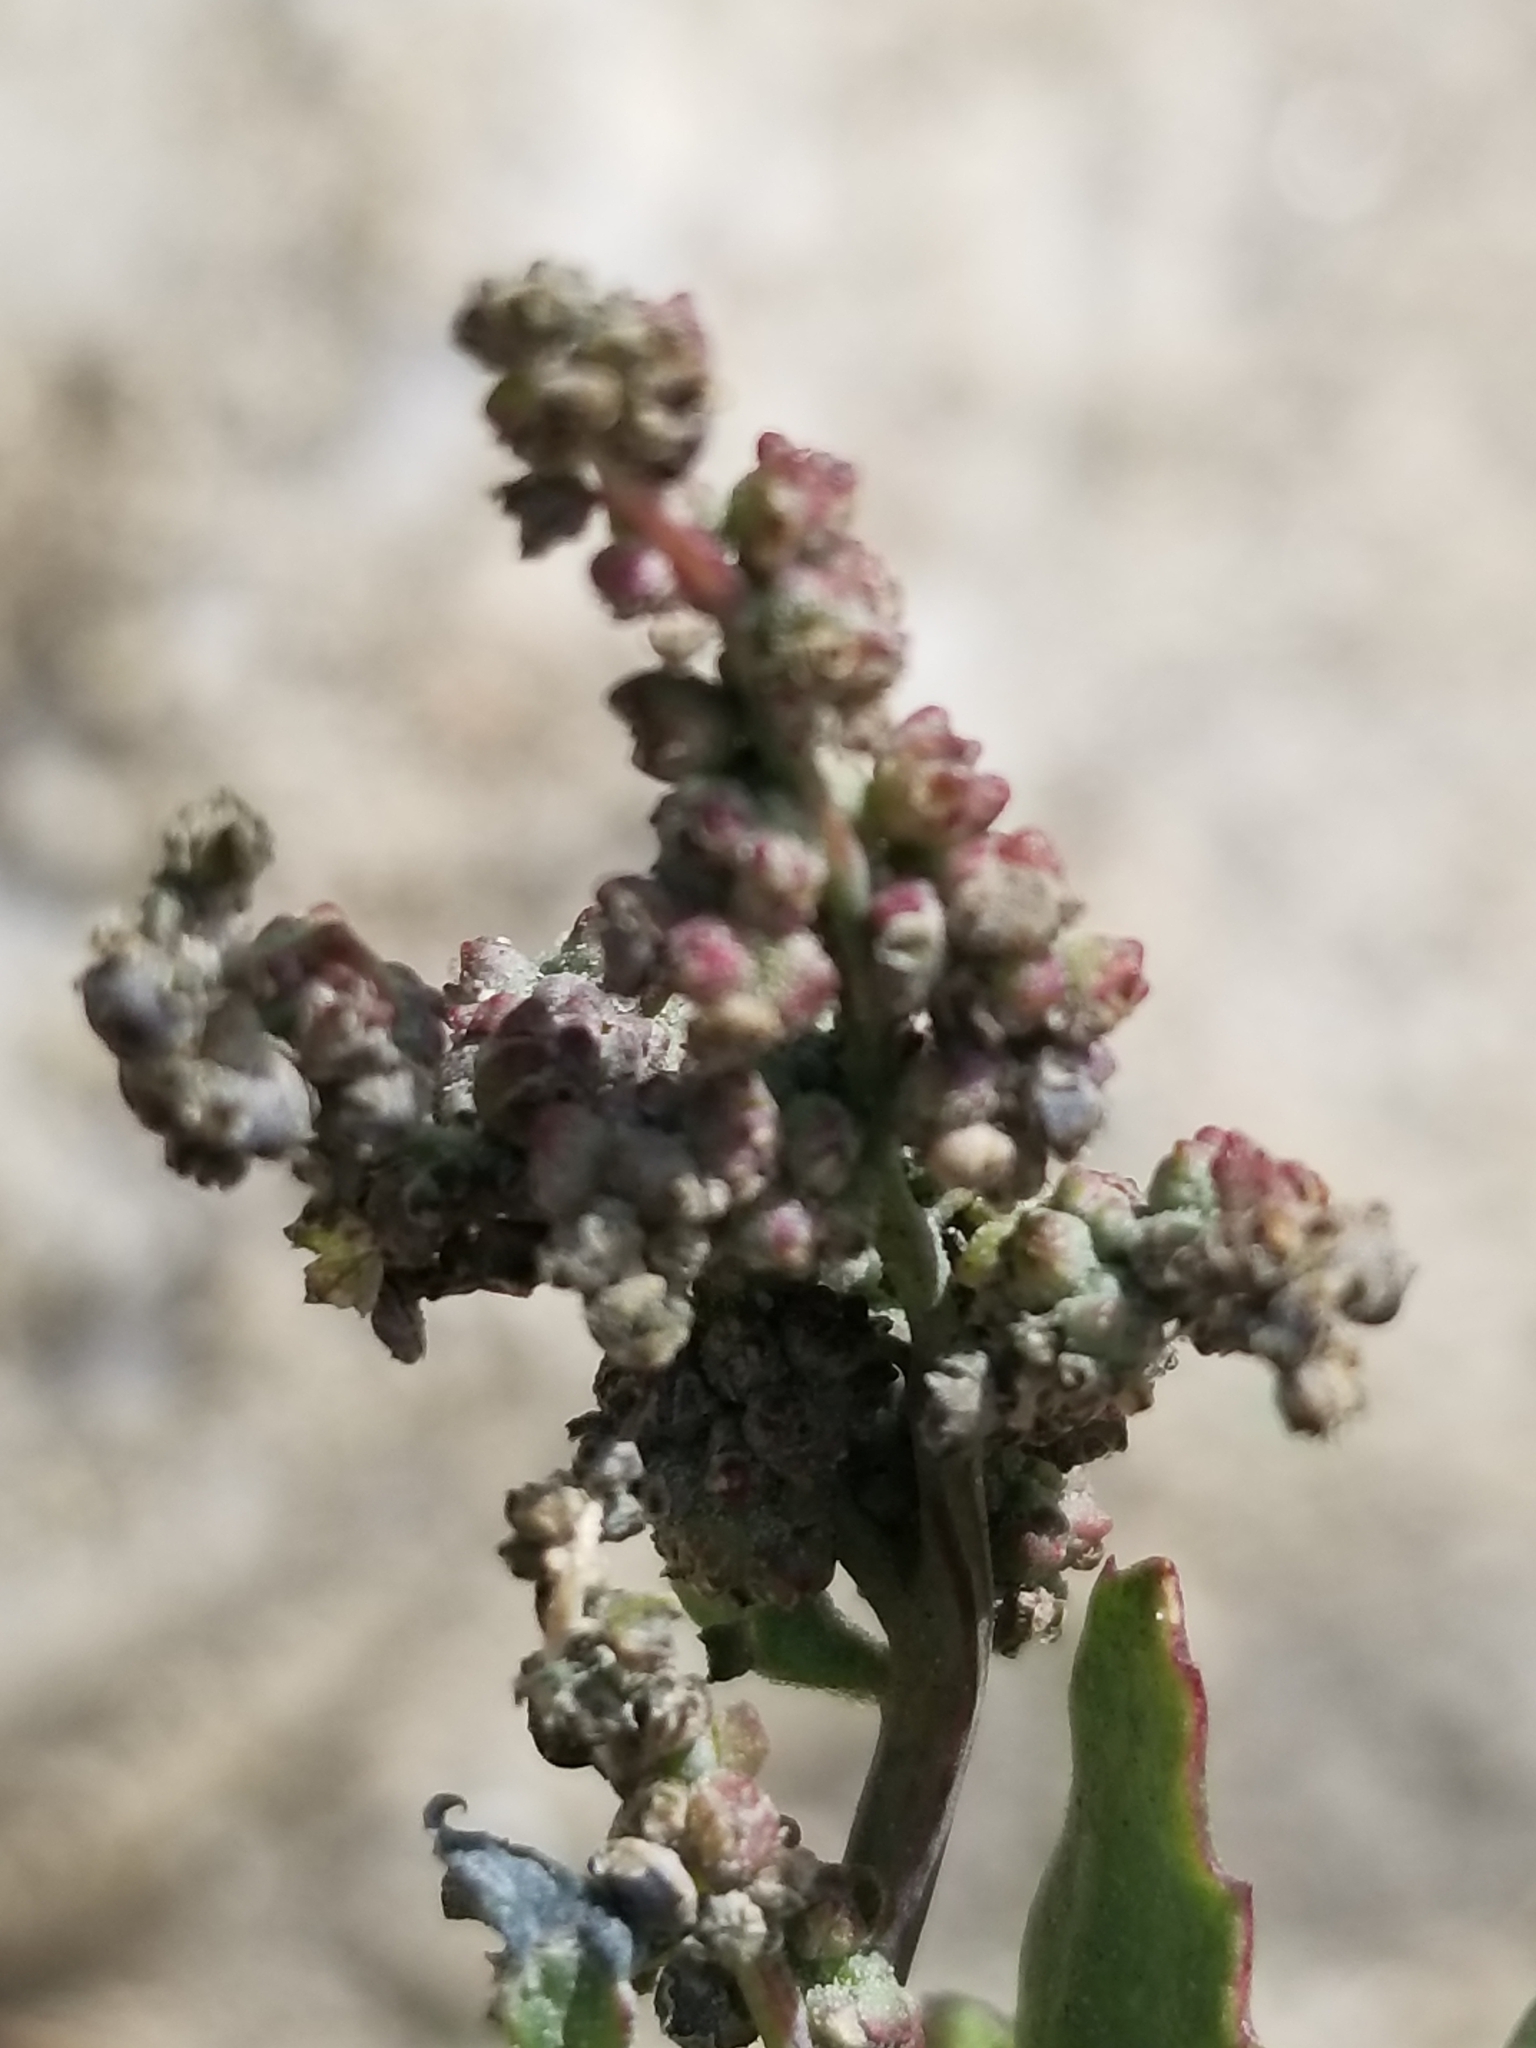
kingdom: Plantae
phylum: Tracheophyta
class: Magnoliopsida
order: Caryophyllales
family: Amaranthaceae
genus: Chenopodiastrum
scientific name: Chenopodiastrum murale
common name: Sowbane
